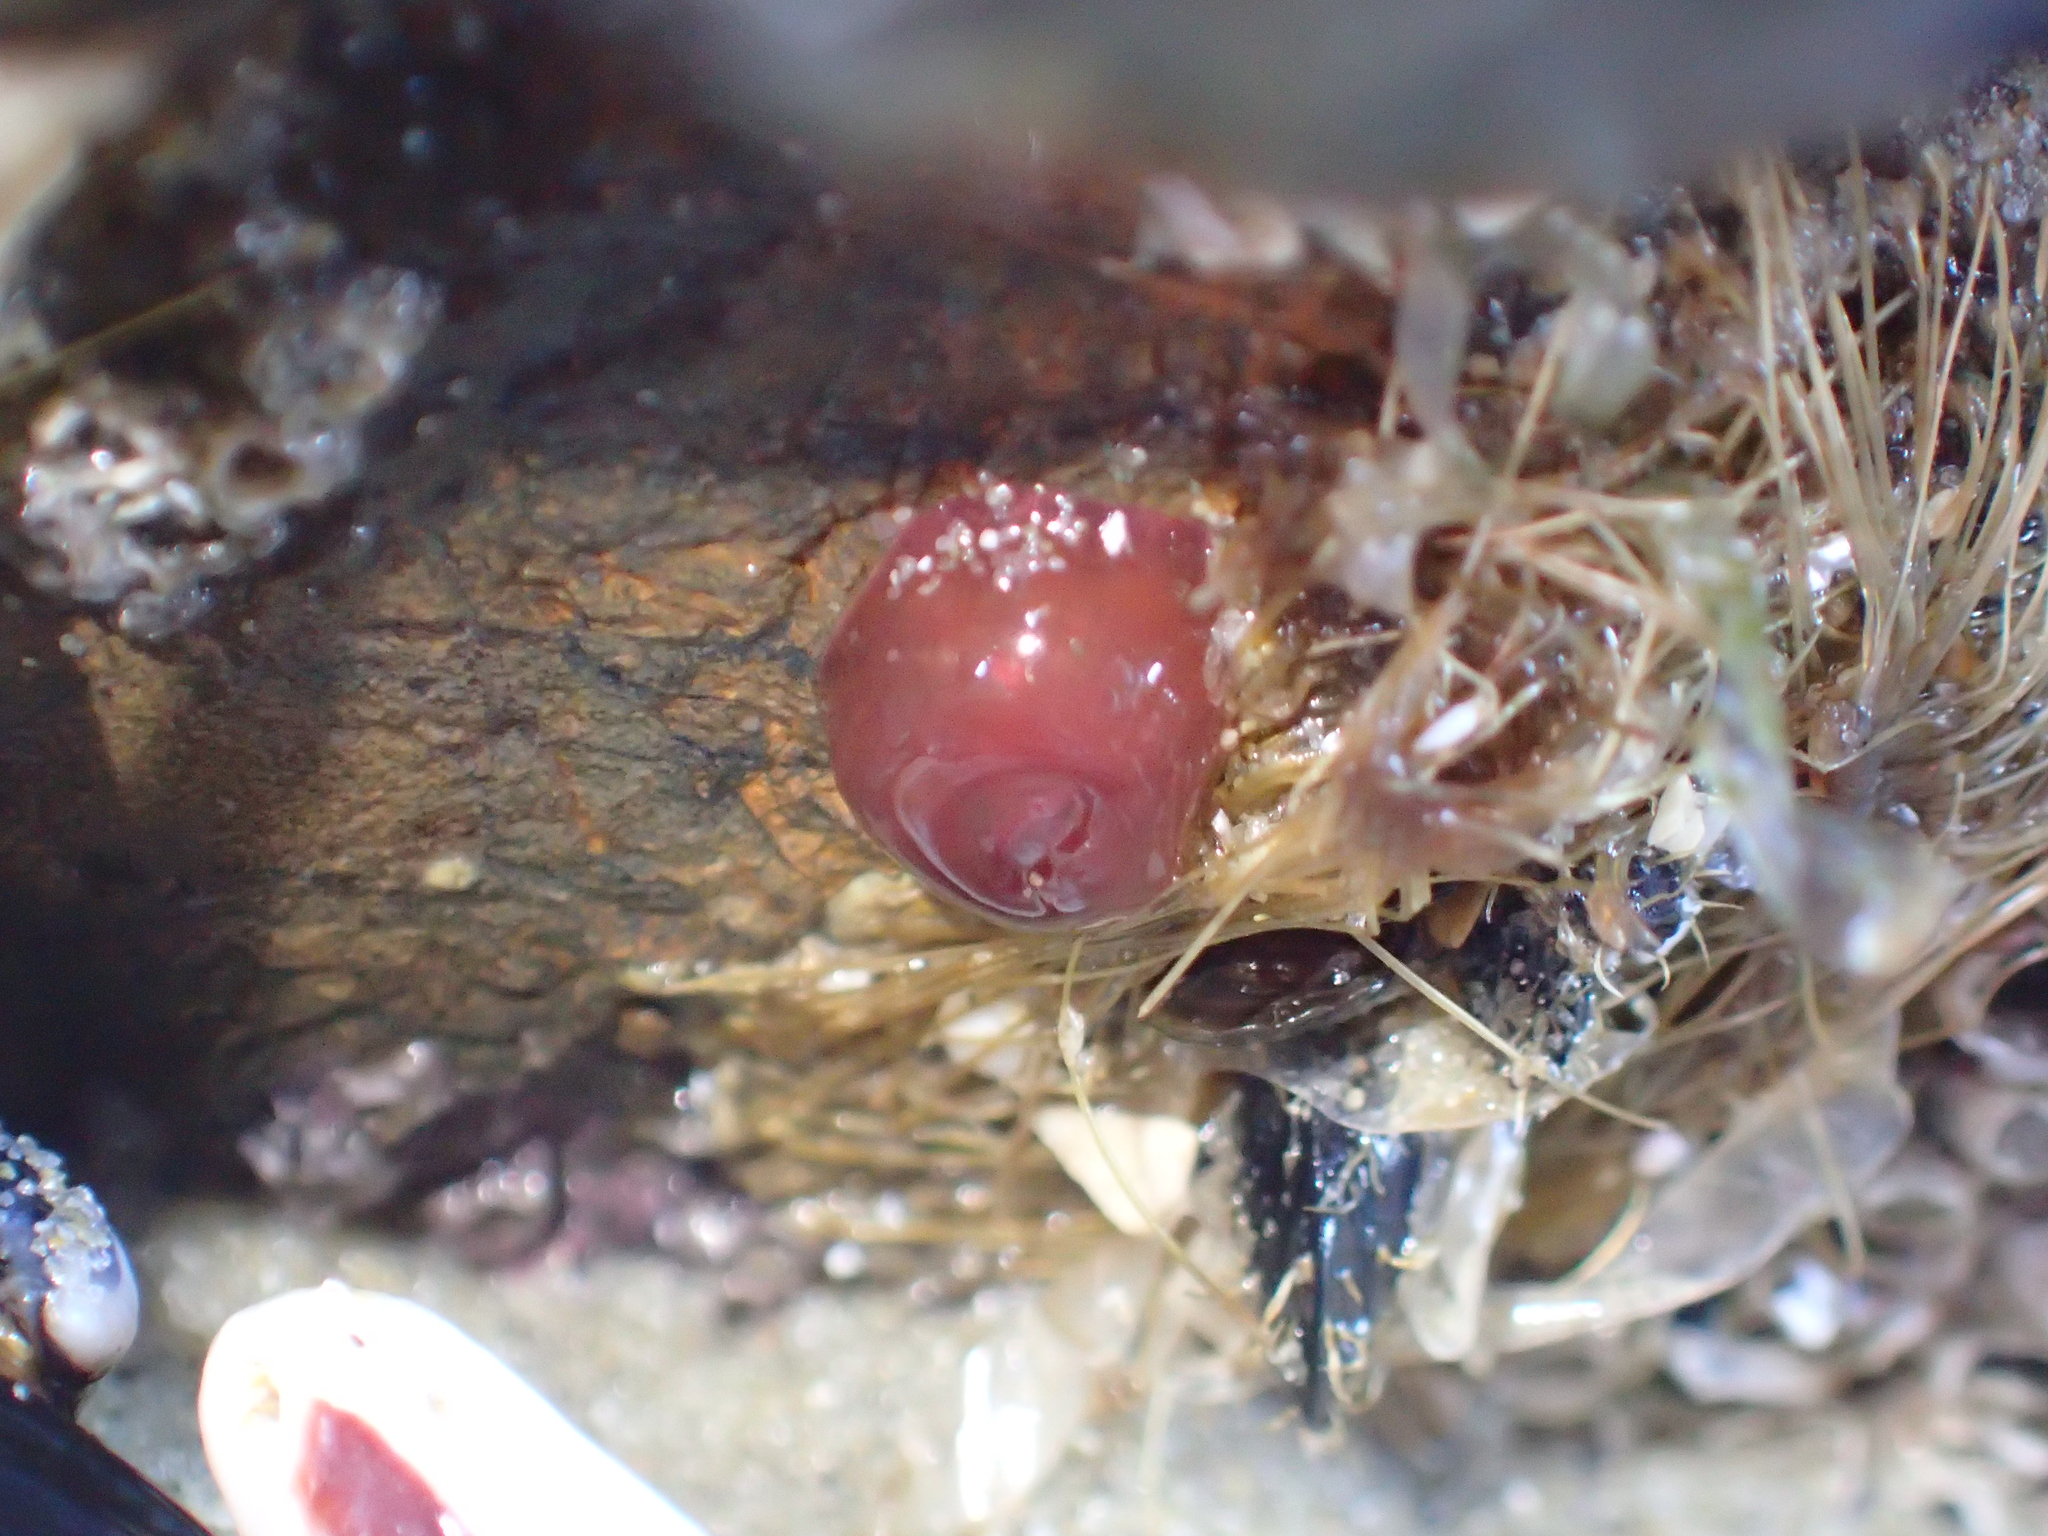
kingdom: Animalia
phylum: Cnidaria
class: Anthozoa
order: Actiniaria
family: Actiniidae
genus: Actinia
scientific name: Actinia tenebrosa
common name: Waratah anemone
